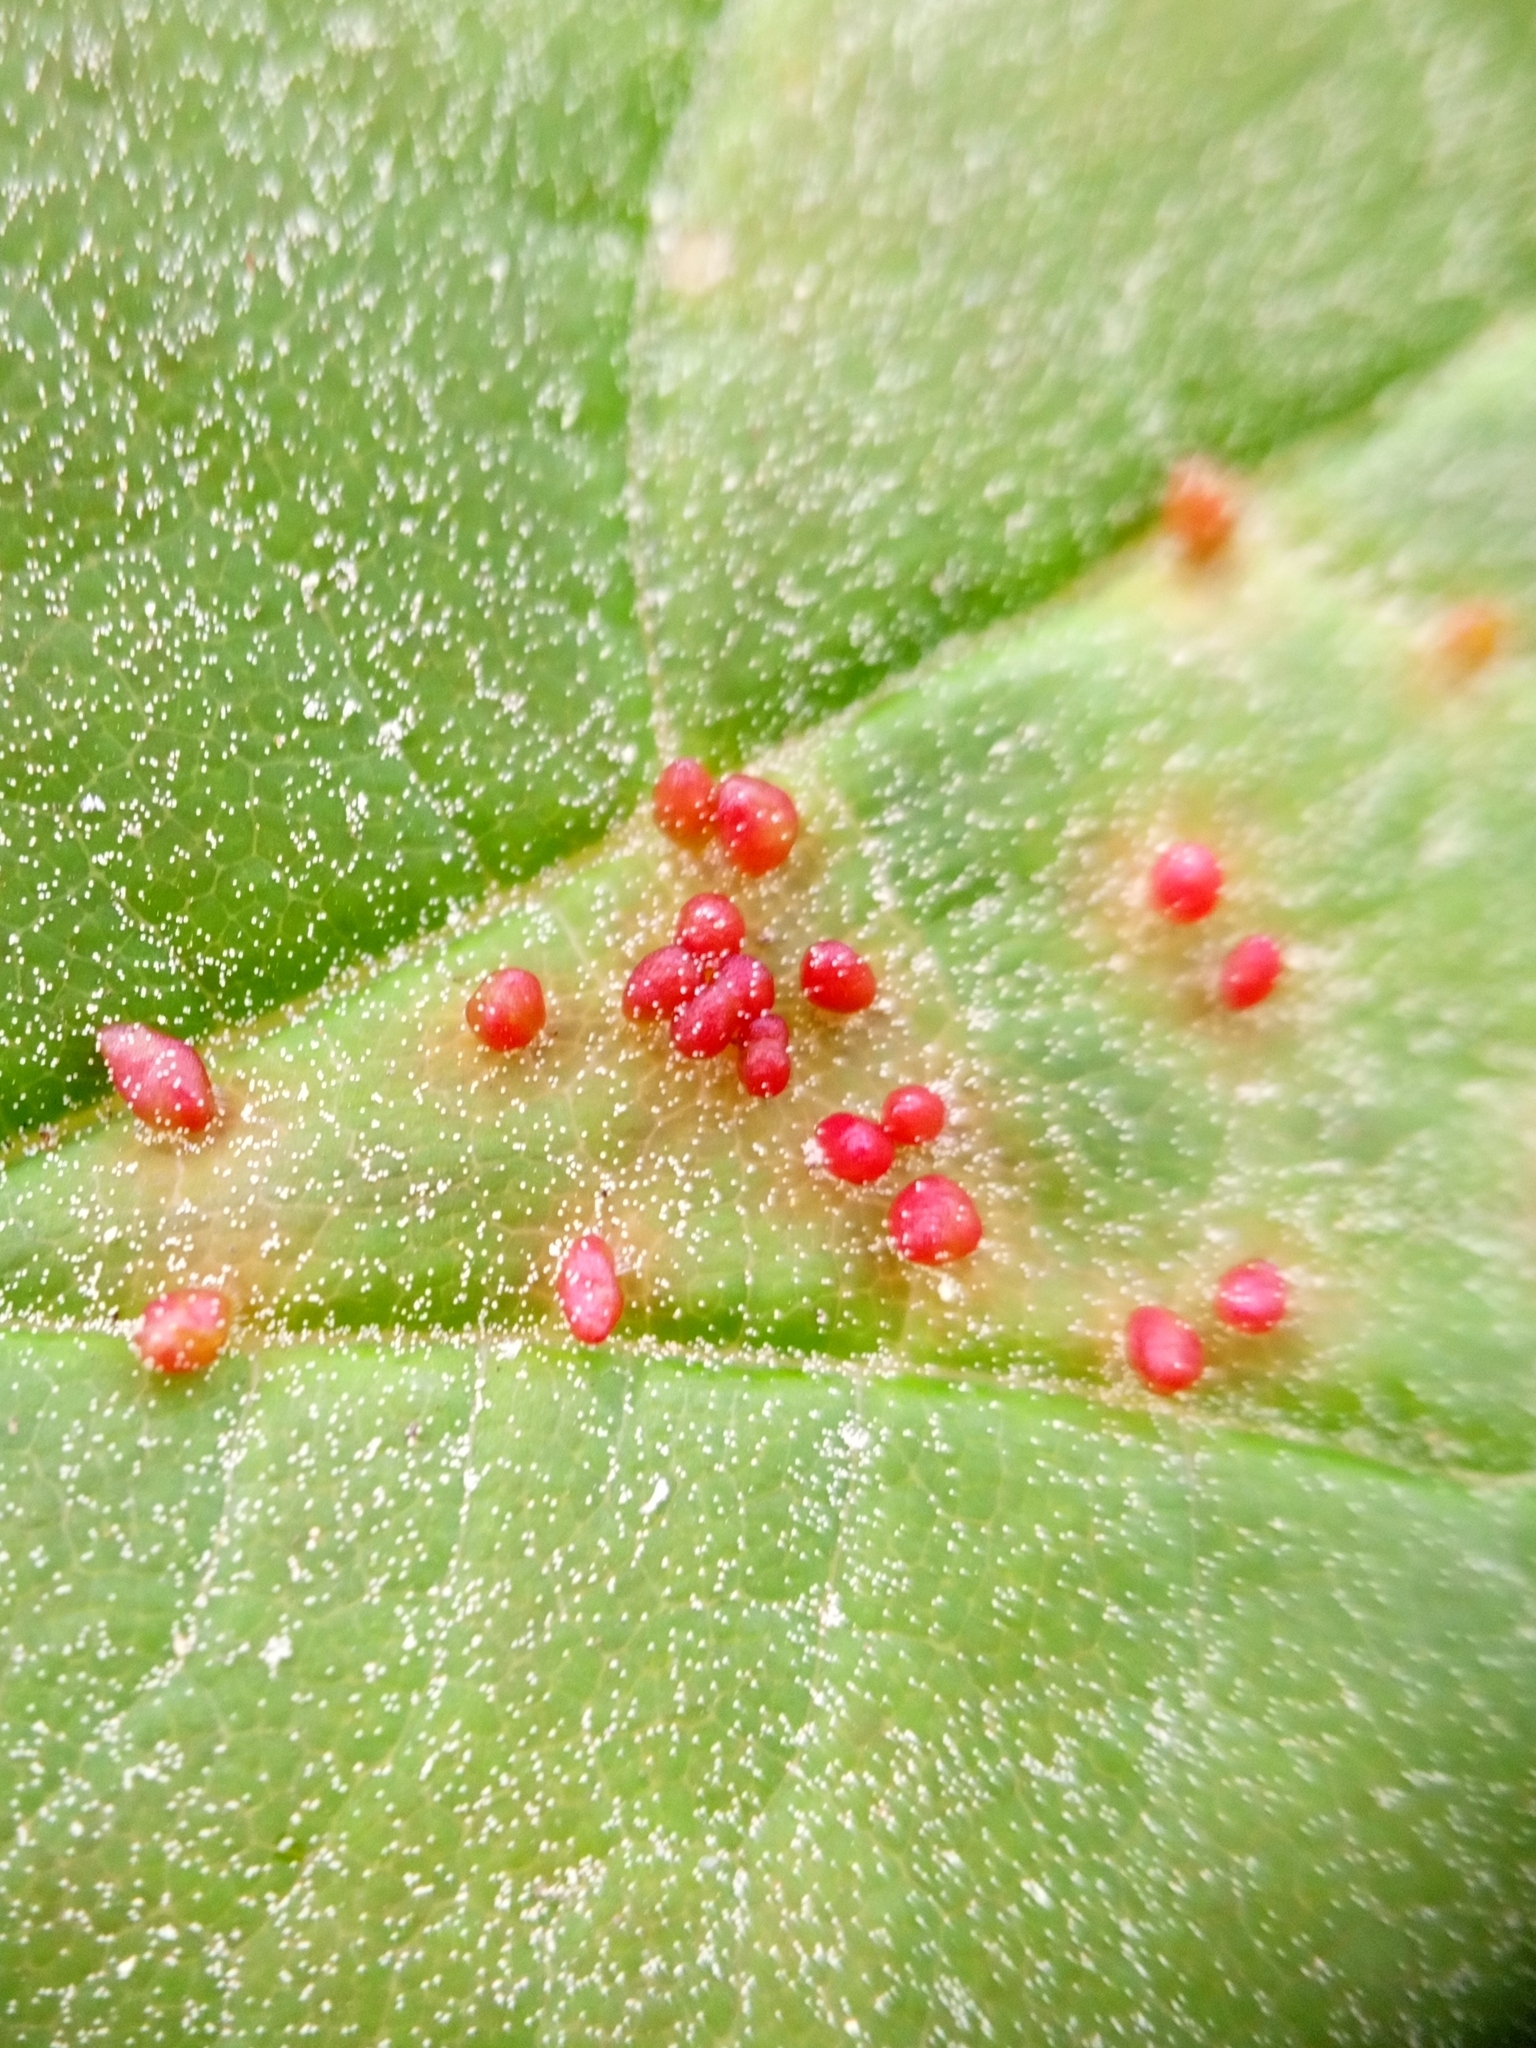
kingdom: Animalia
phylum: Arthropoda
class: Arachnida
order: Trombidiformes
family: Eriophyidae
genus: Aceria
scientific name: Aceria cephaloneus
